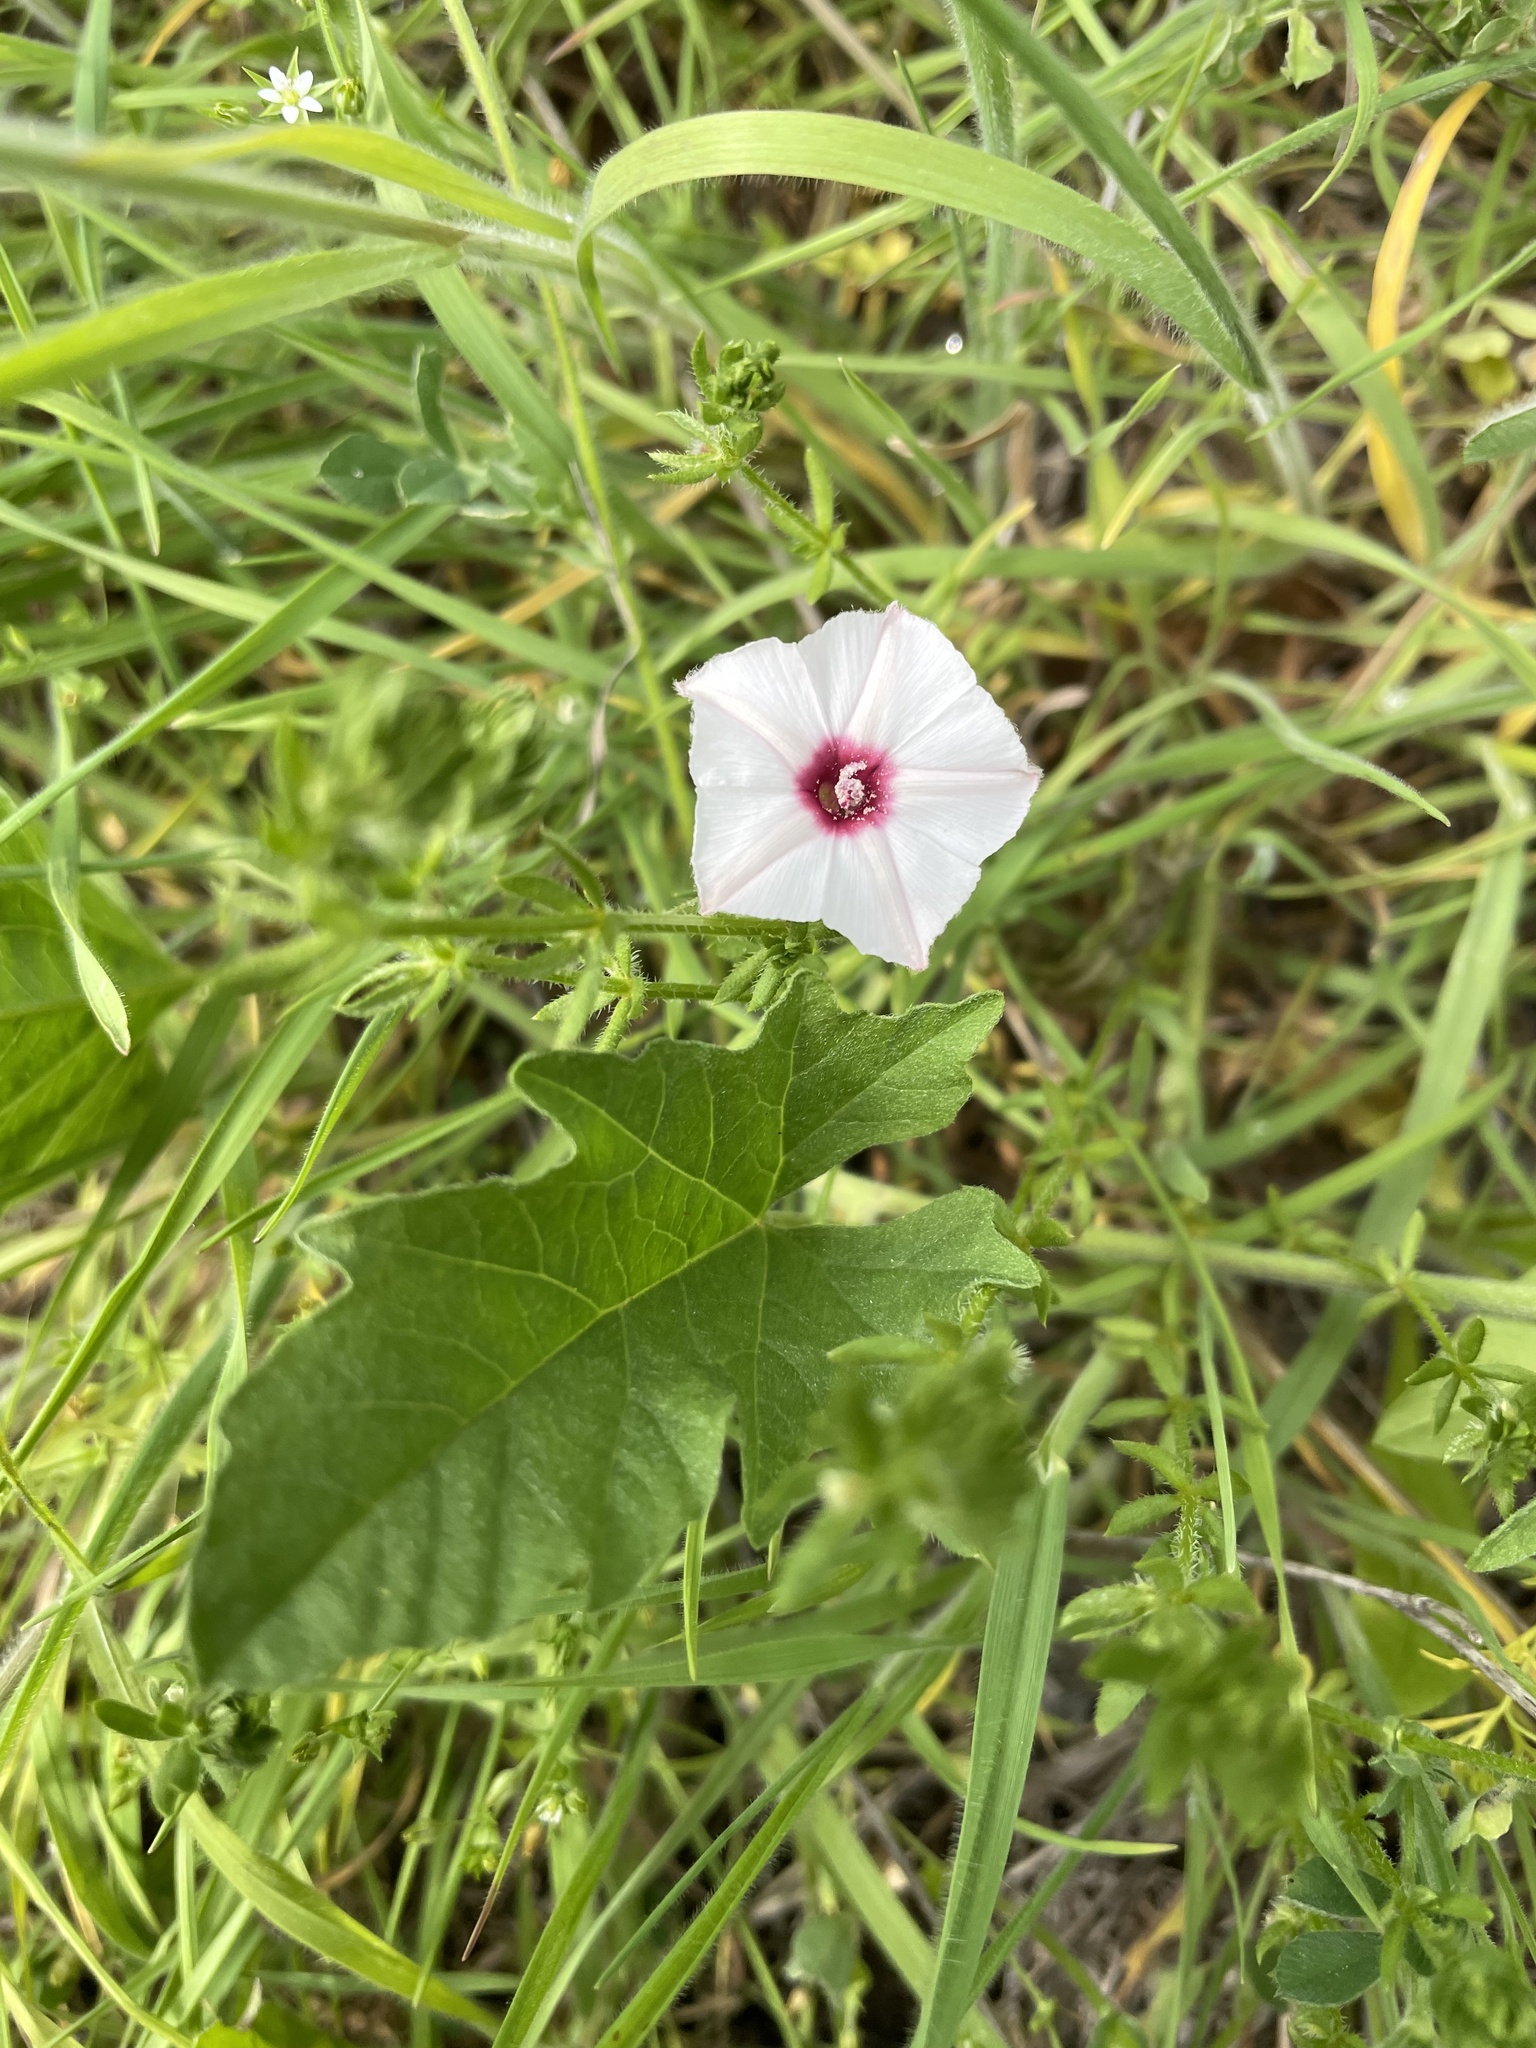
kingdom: Plantae
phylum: Tracheophyta
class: Magnoliopsida
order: Solanales
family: Convolvulaceae
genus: Convolvulus
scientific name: Convolvulus equitans
